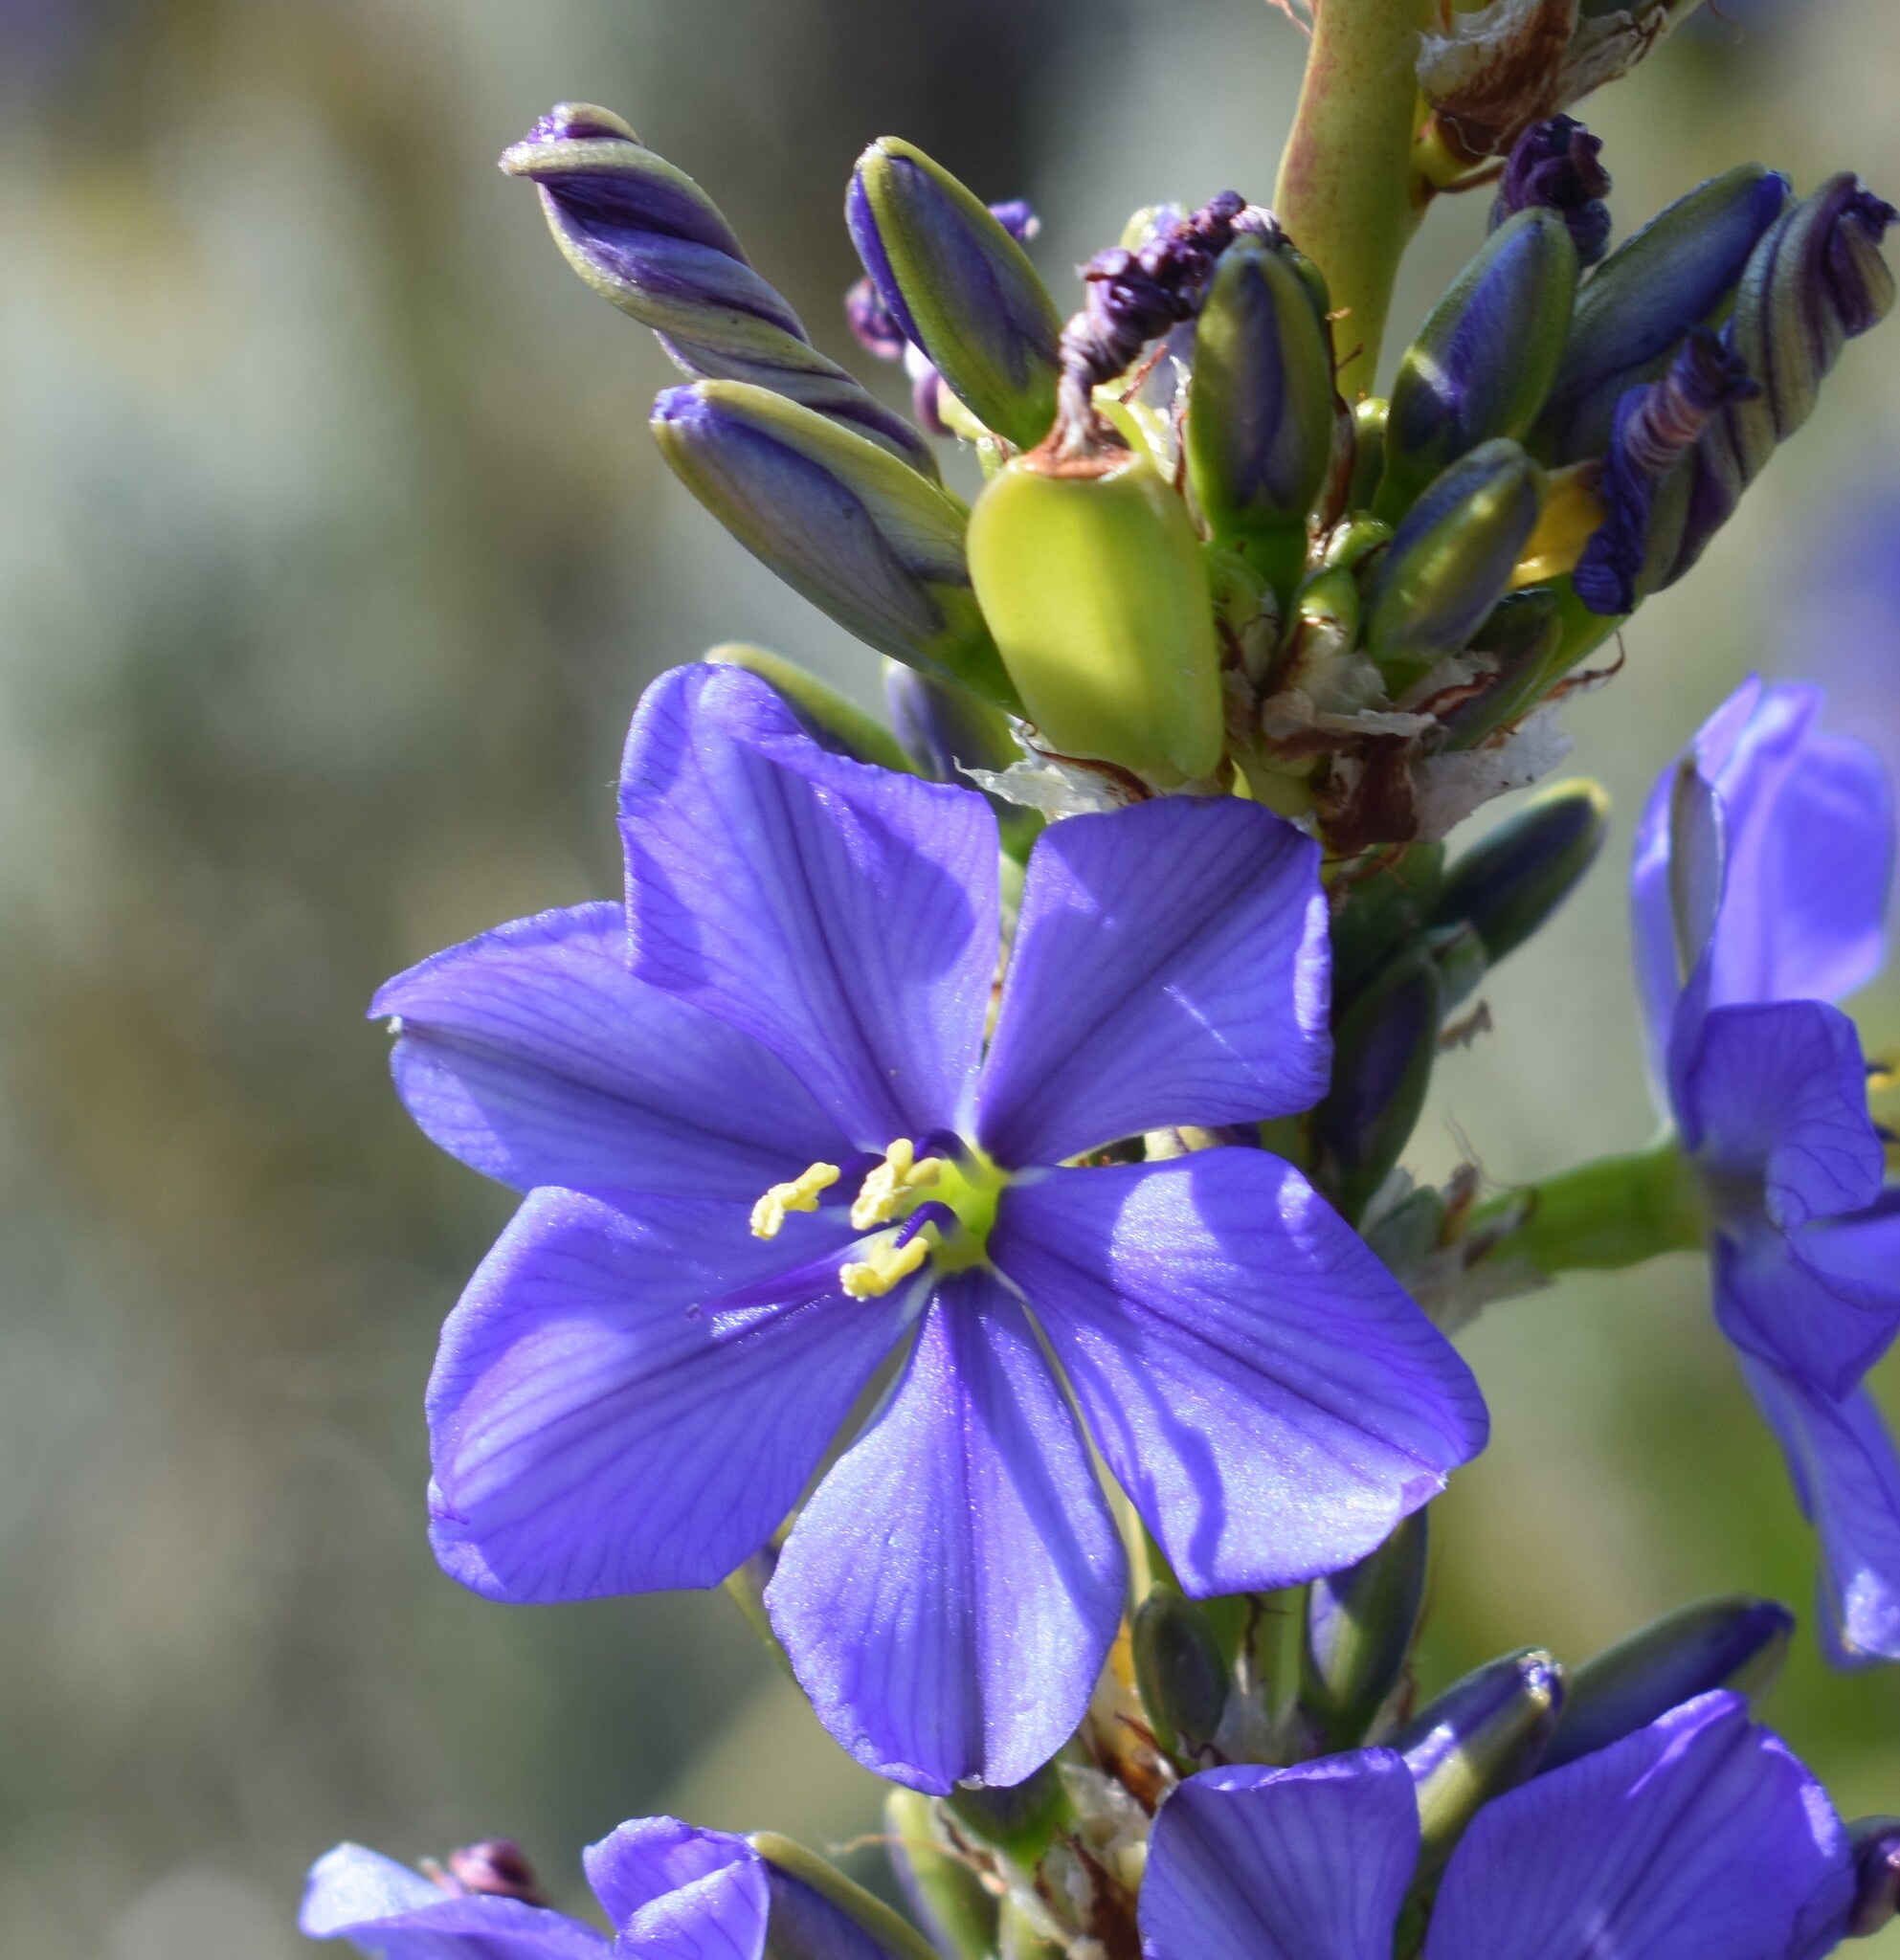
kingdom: Plantae
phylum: Tracheophyta
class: Liliopsida
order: Asparagales
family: Iridaceae
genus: Aristea
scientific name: Aristea capitata
